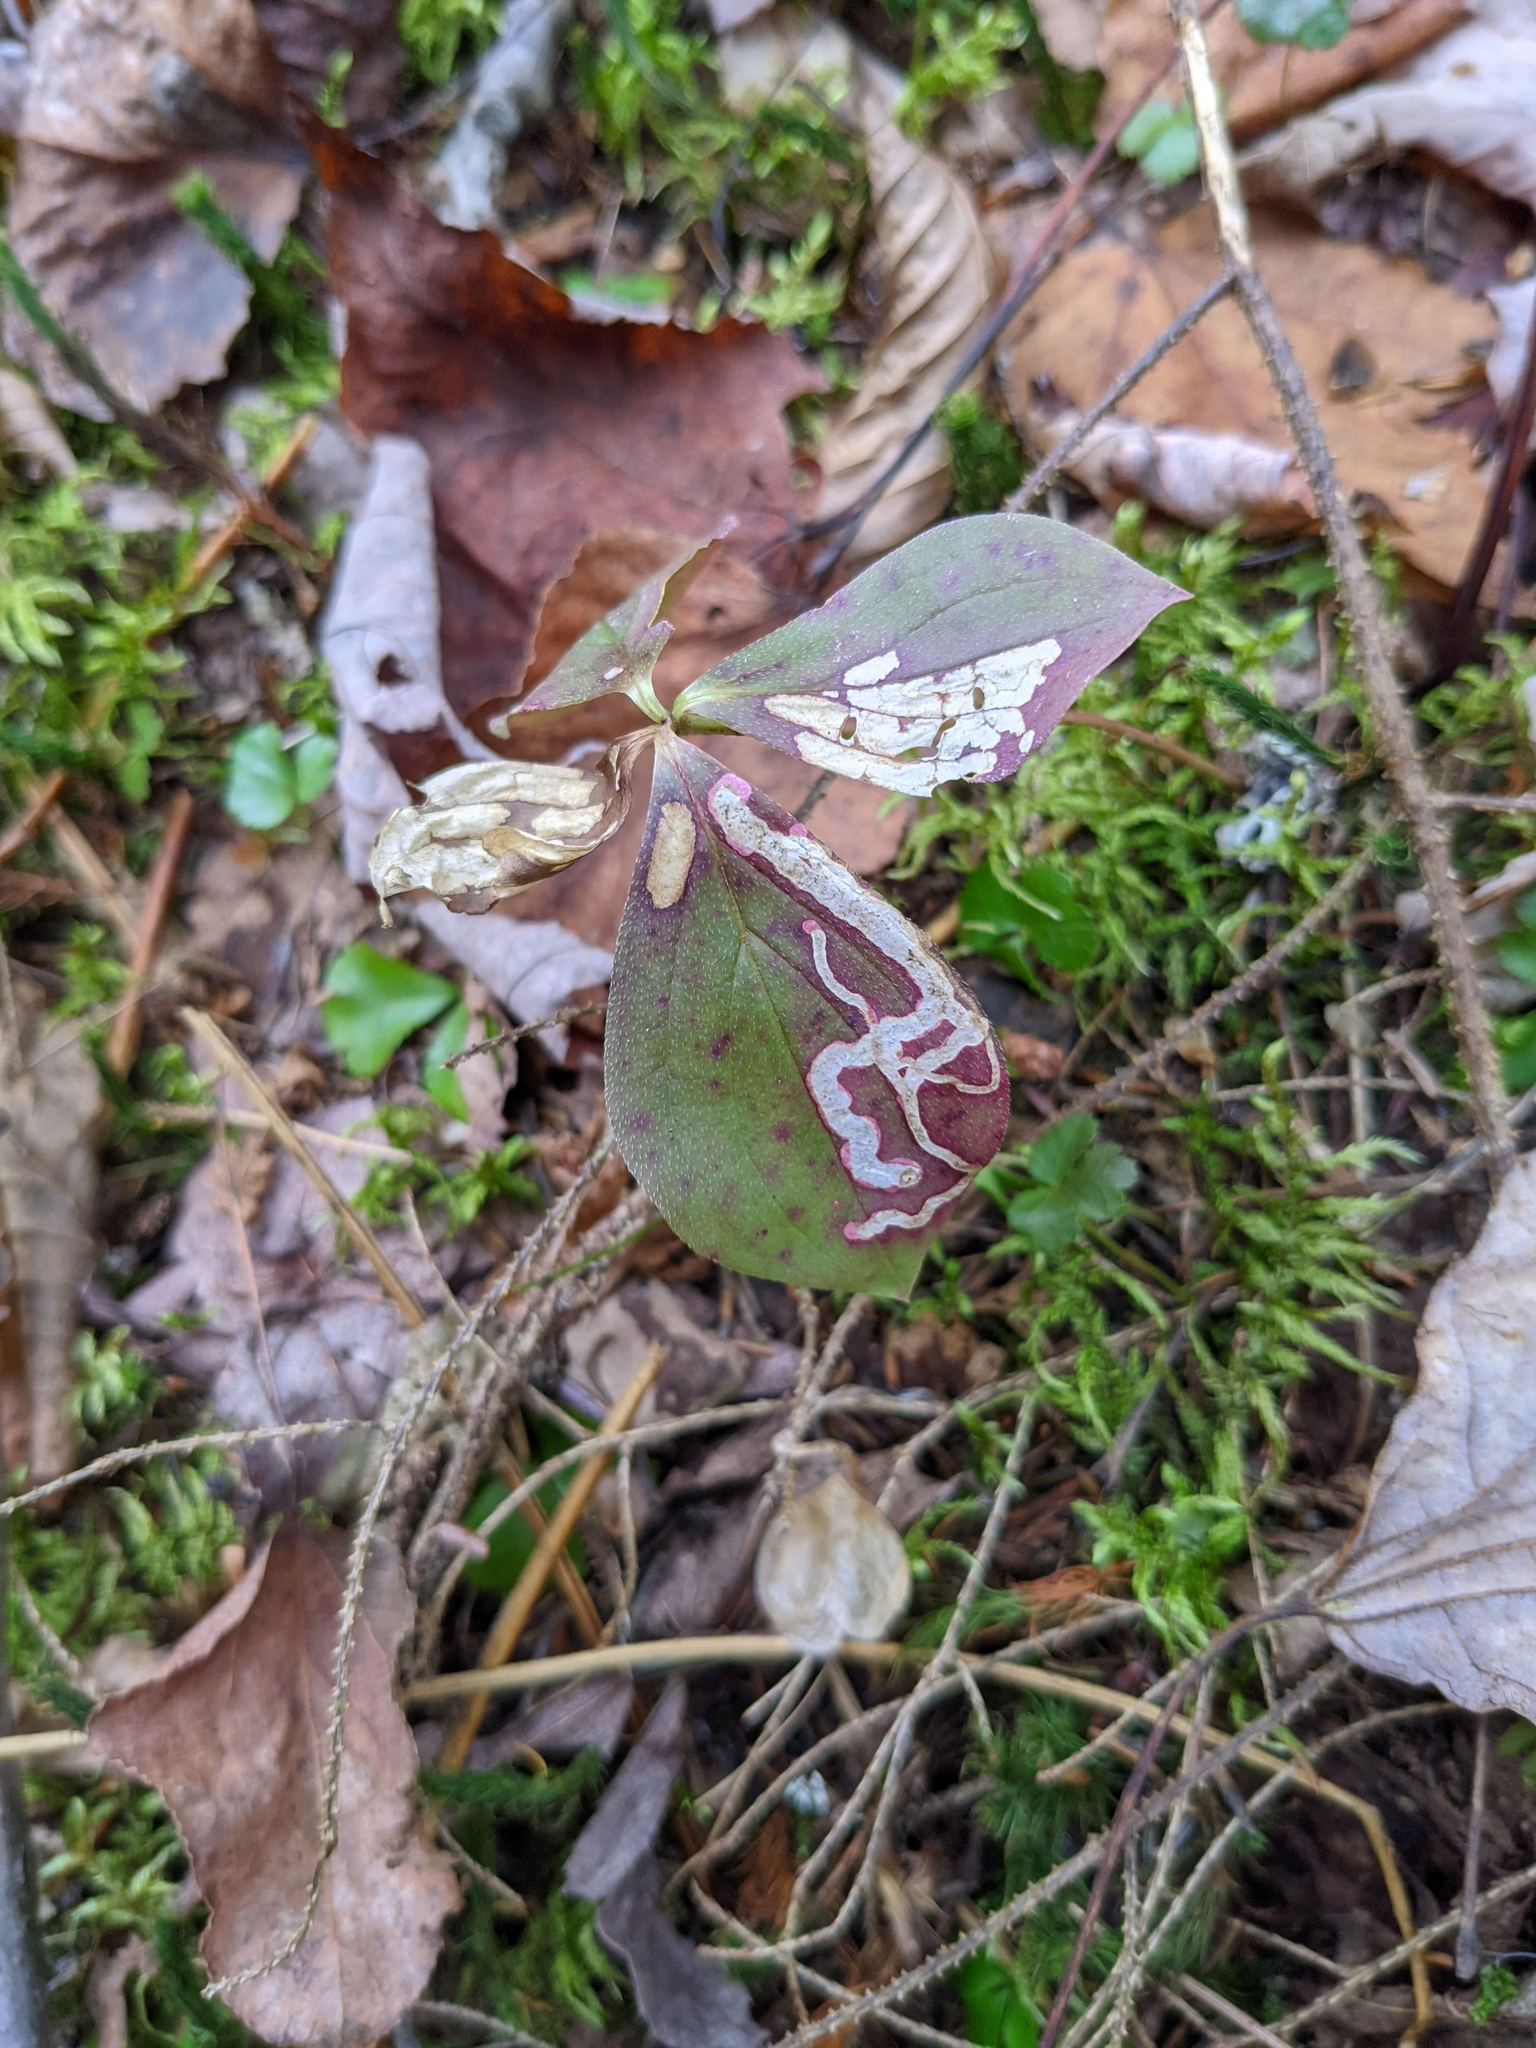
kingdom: Animalia
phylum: Arthropoda
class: Insecta
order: Diptera
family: Agromyzidae
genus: Phytomyza
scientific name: Phytomyza agromyzina
